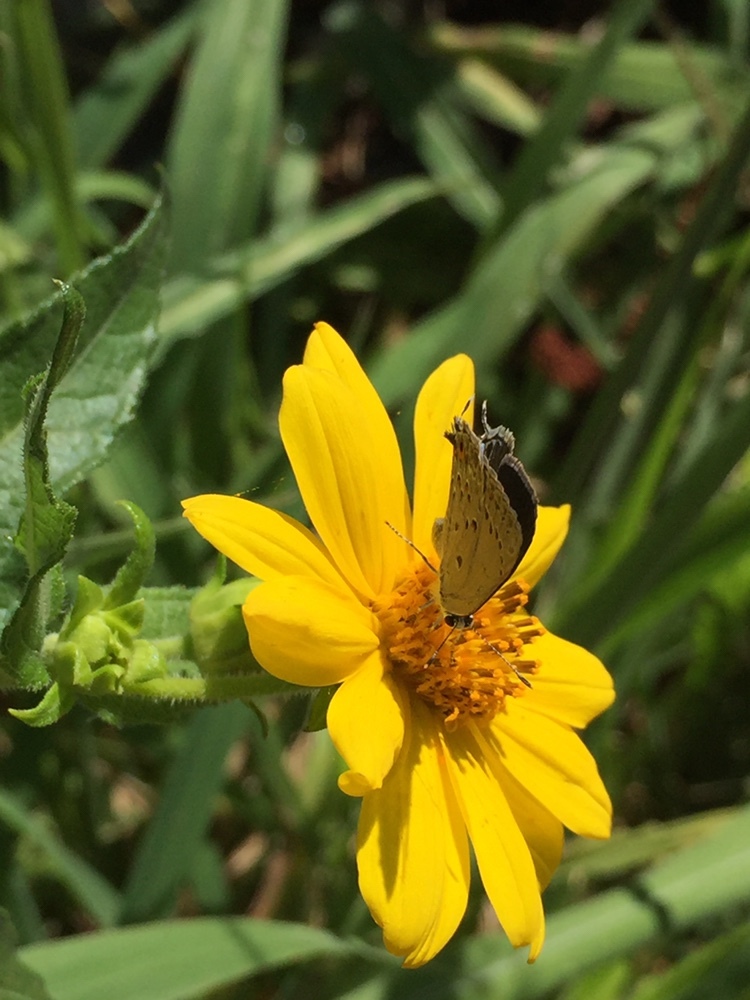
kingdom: Animalia
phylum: Arthropoda
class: Insecta
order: Lepidoptera
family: Lycaenidae
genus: Strymon
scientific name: Strymon eurytulus
